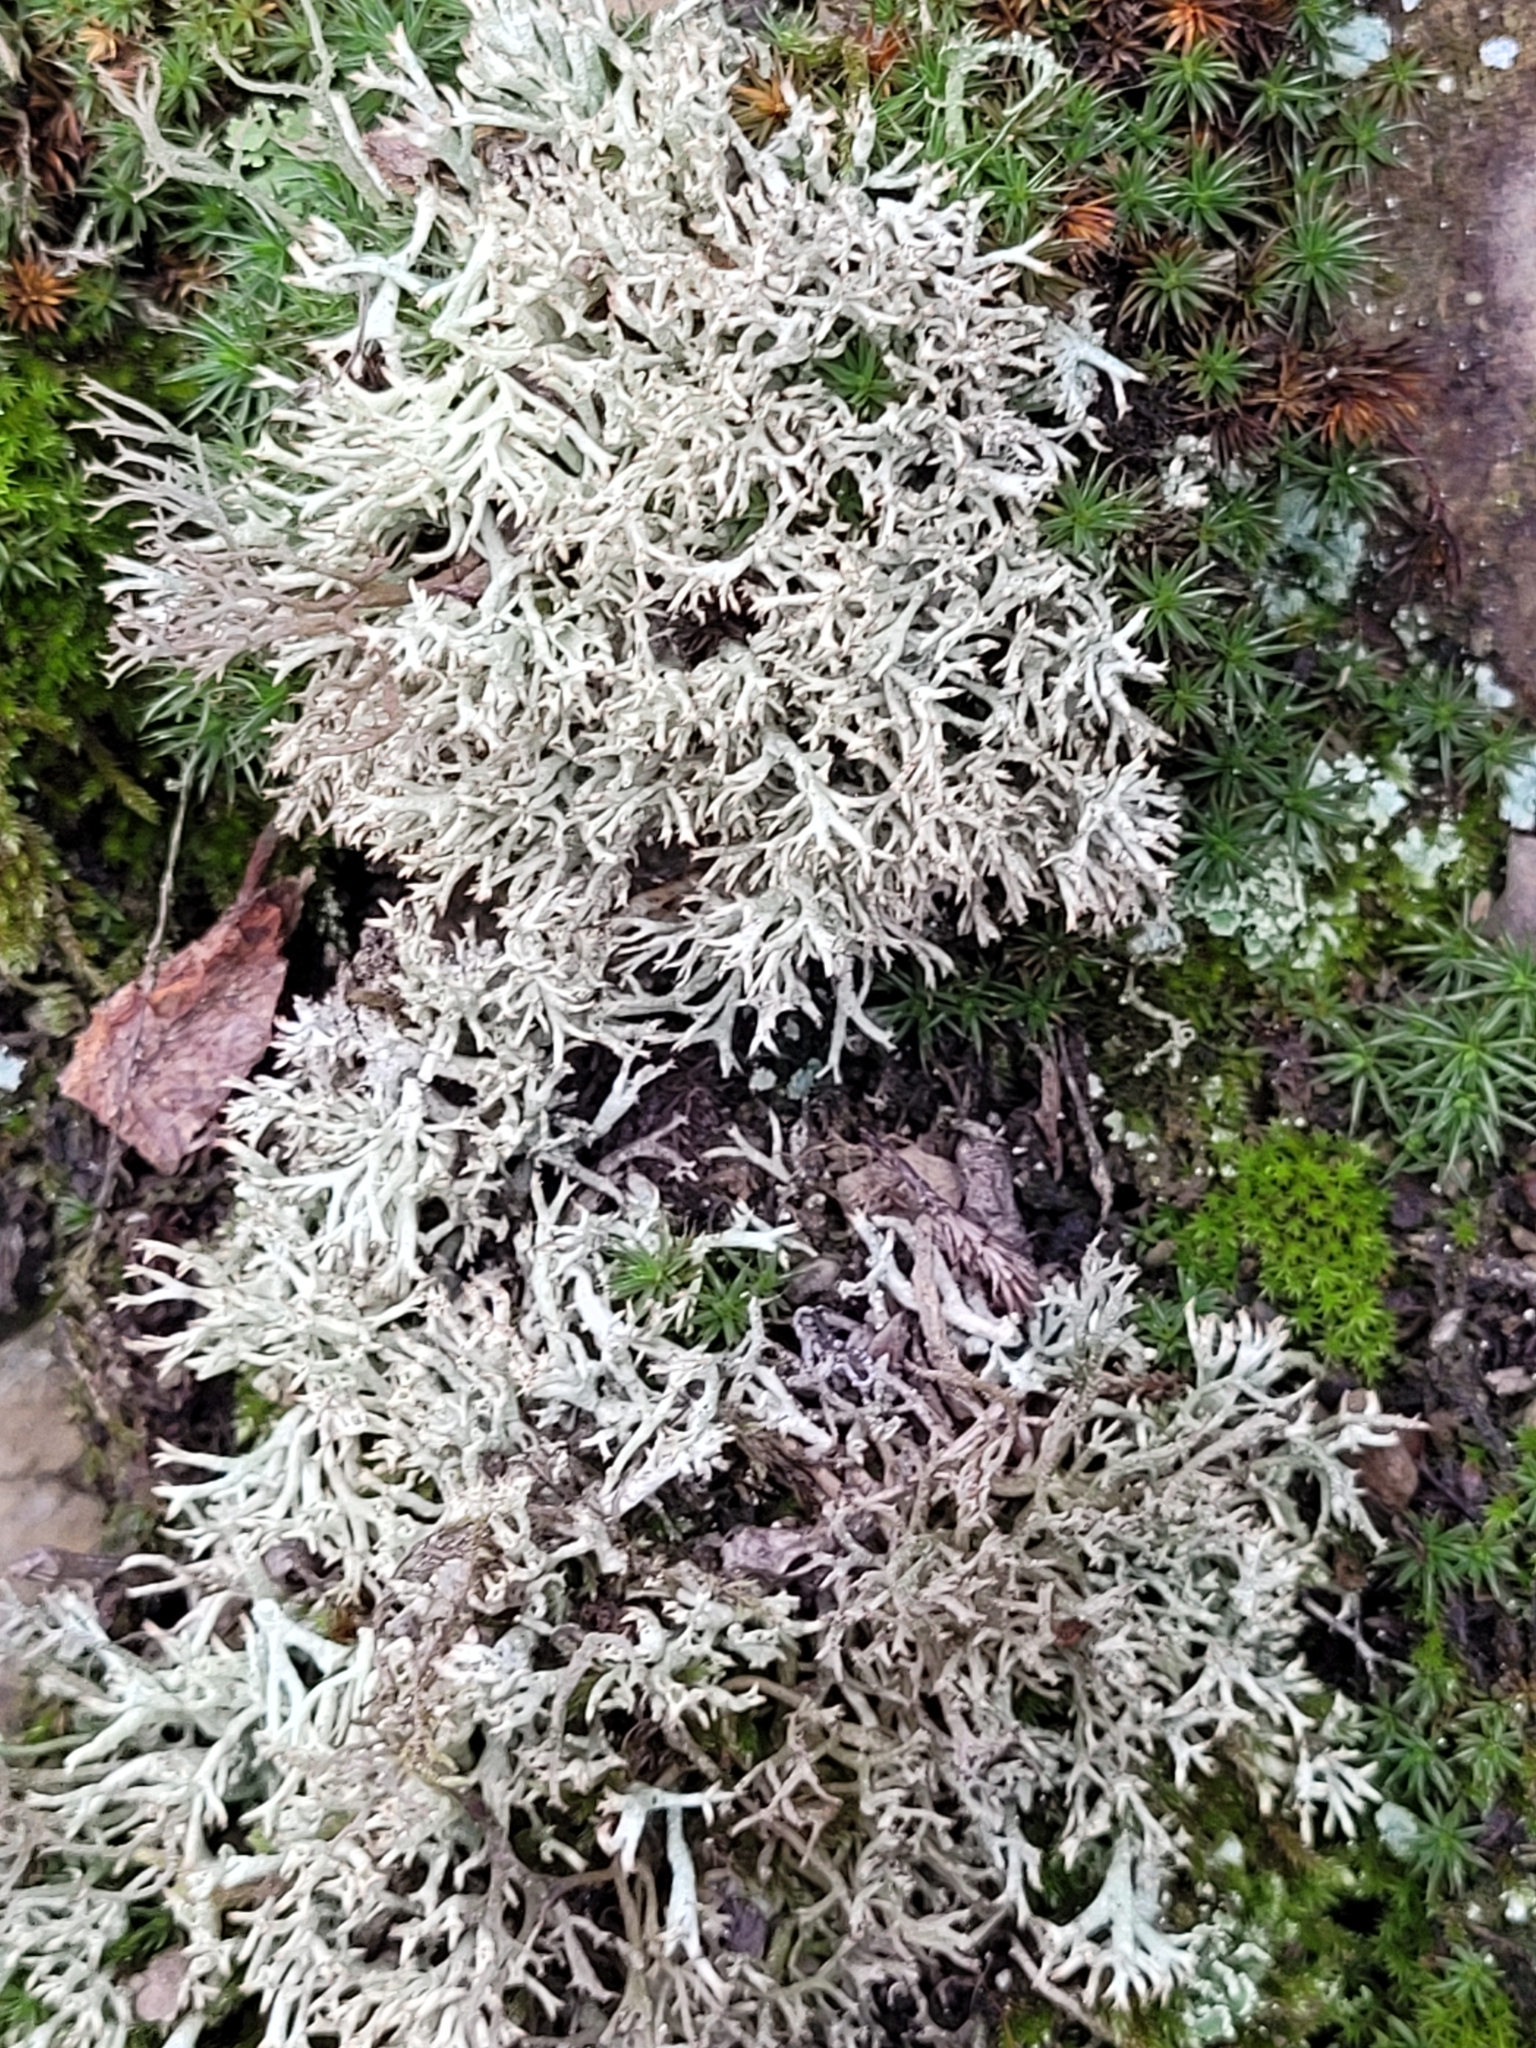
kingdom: Fungi
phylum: Ascomycota
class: Lecanoromycetes
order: Lecanorales
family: Cladoniaceae
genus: Cladonia
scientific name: Cladonia uncialis
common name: Thorn lichen
